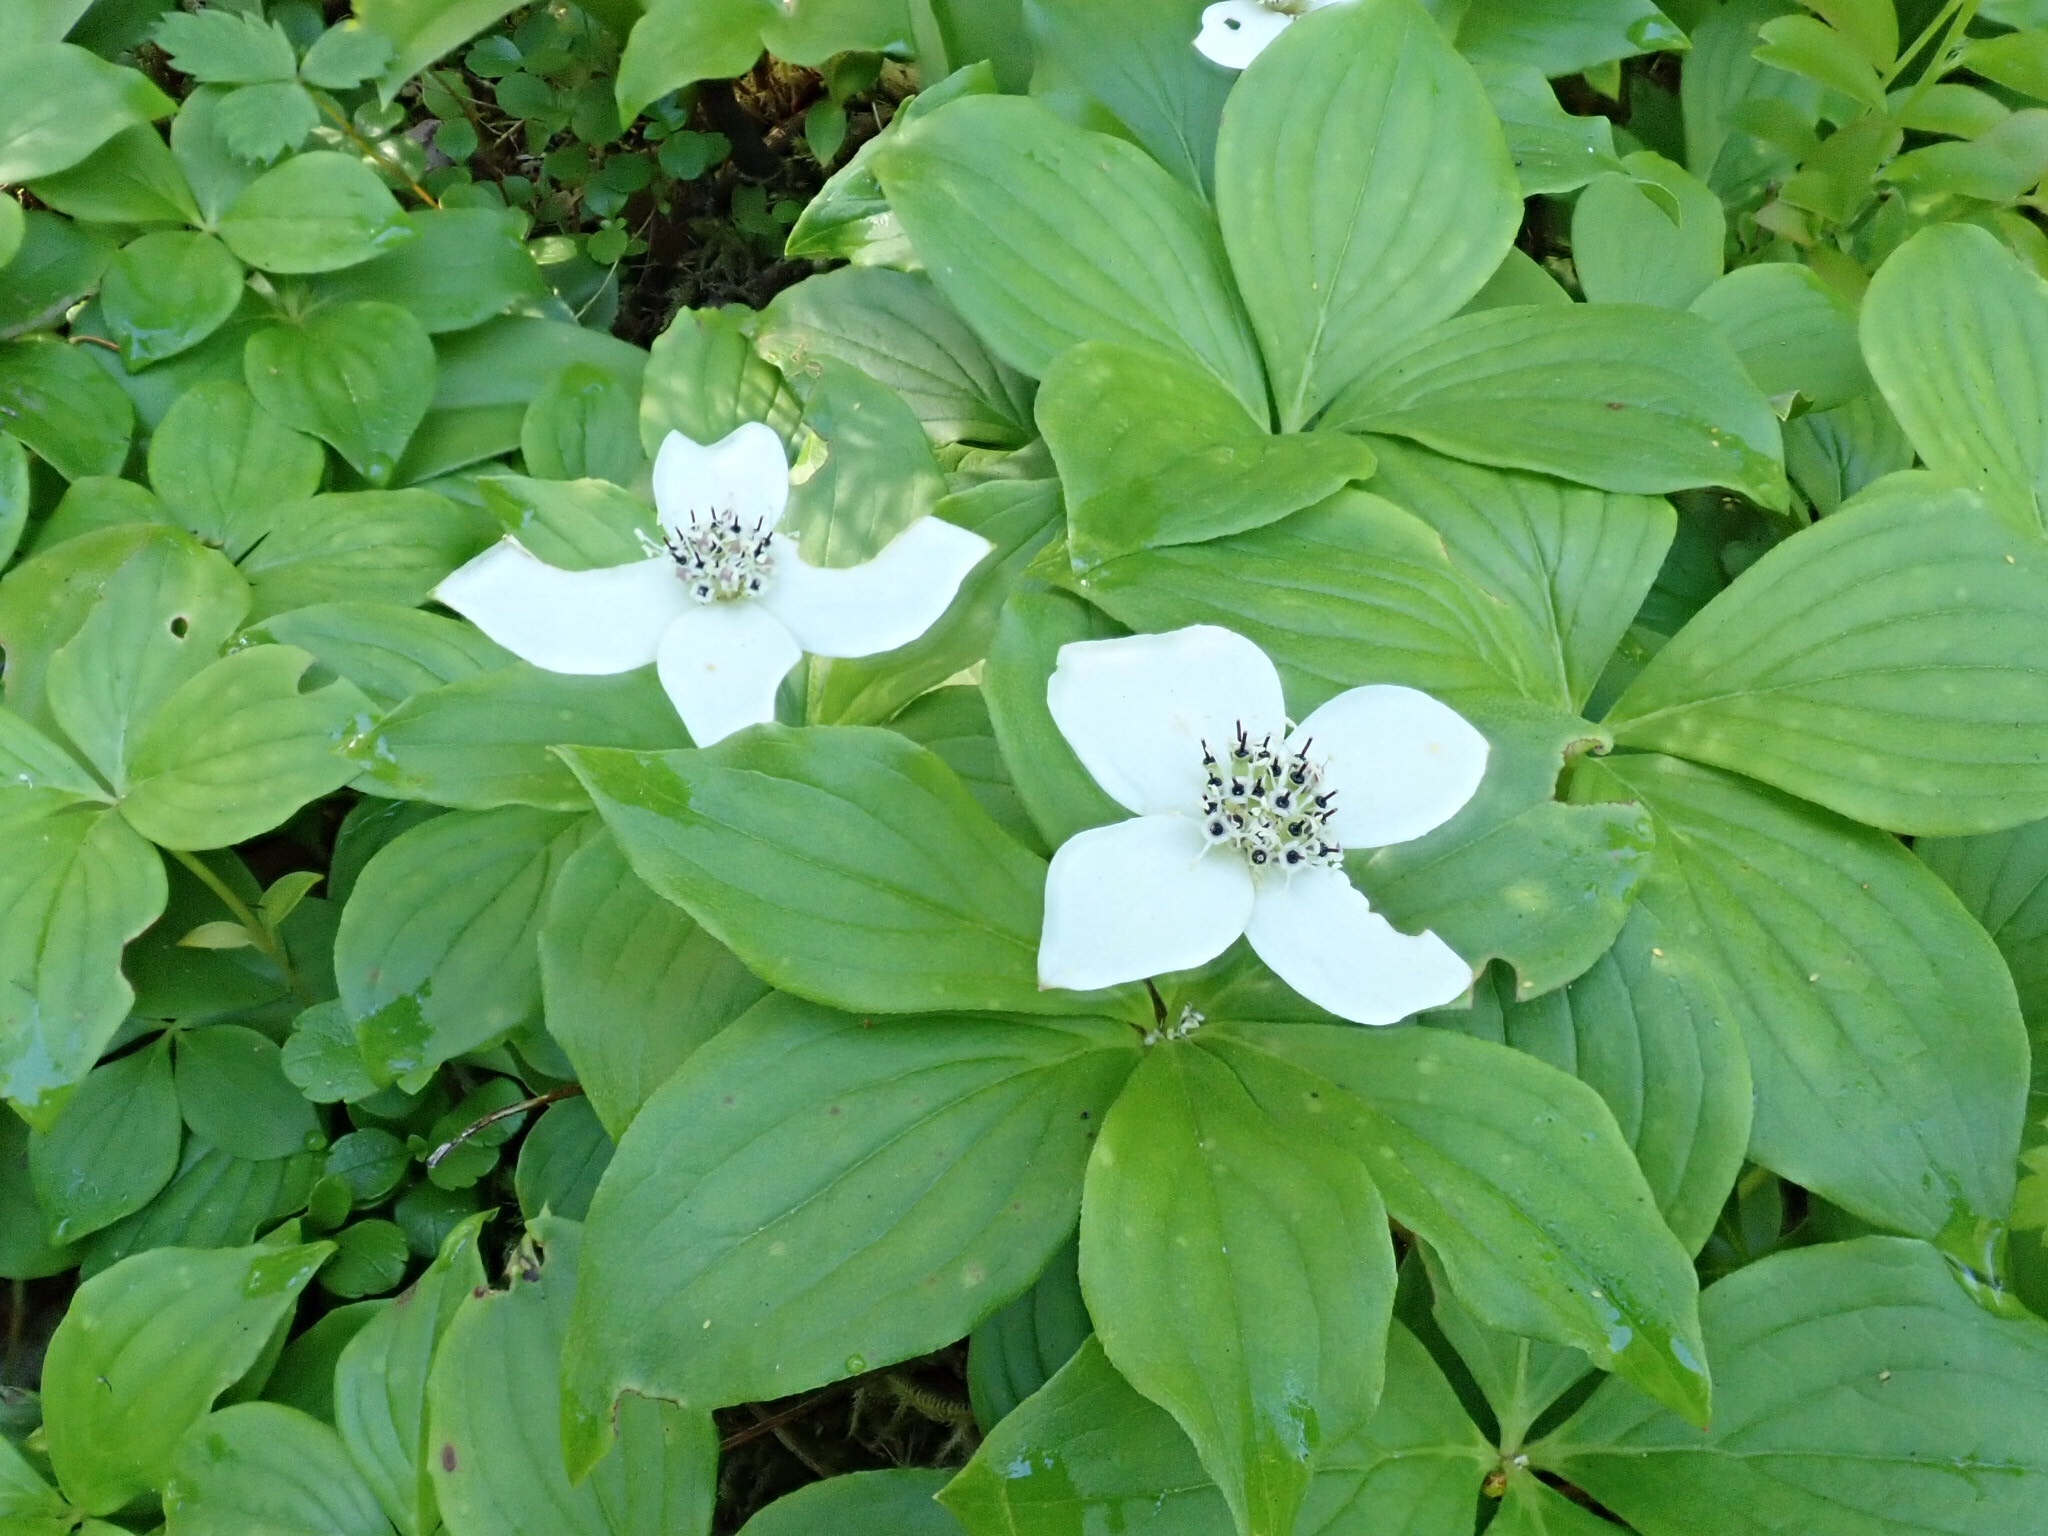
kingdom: Plantae
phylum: Tracheophyta
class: Magnoliopsida
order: Cornales
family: Cornaceae
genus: Cornus
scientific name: Cornus canadensis
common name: Creeping dogwood
